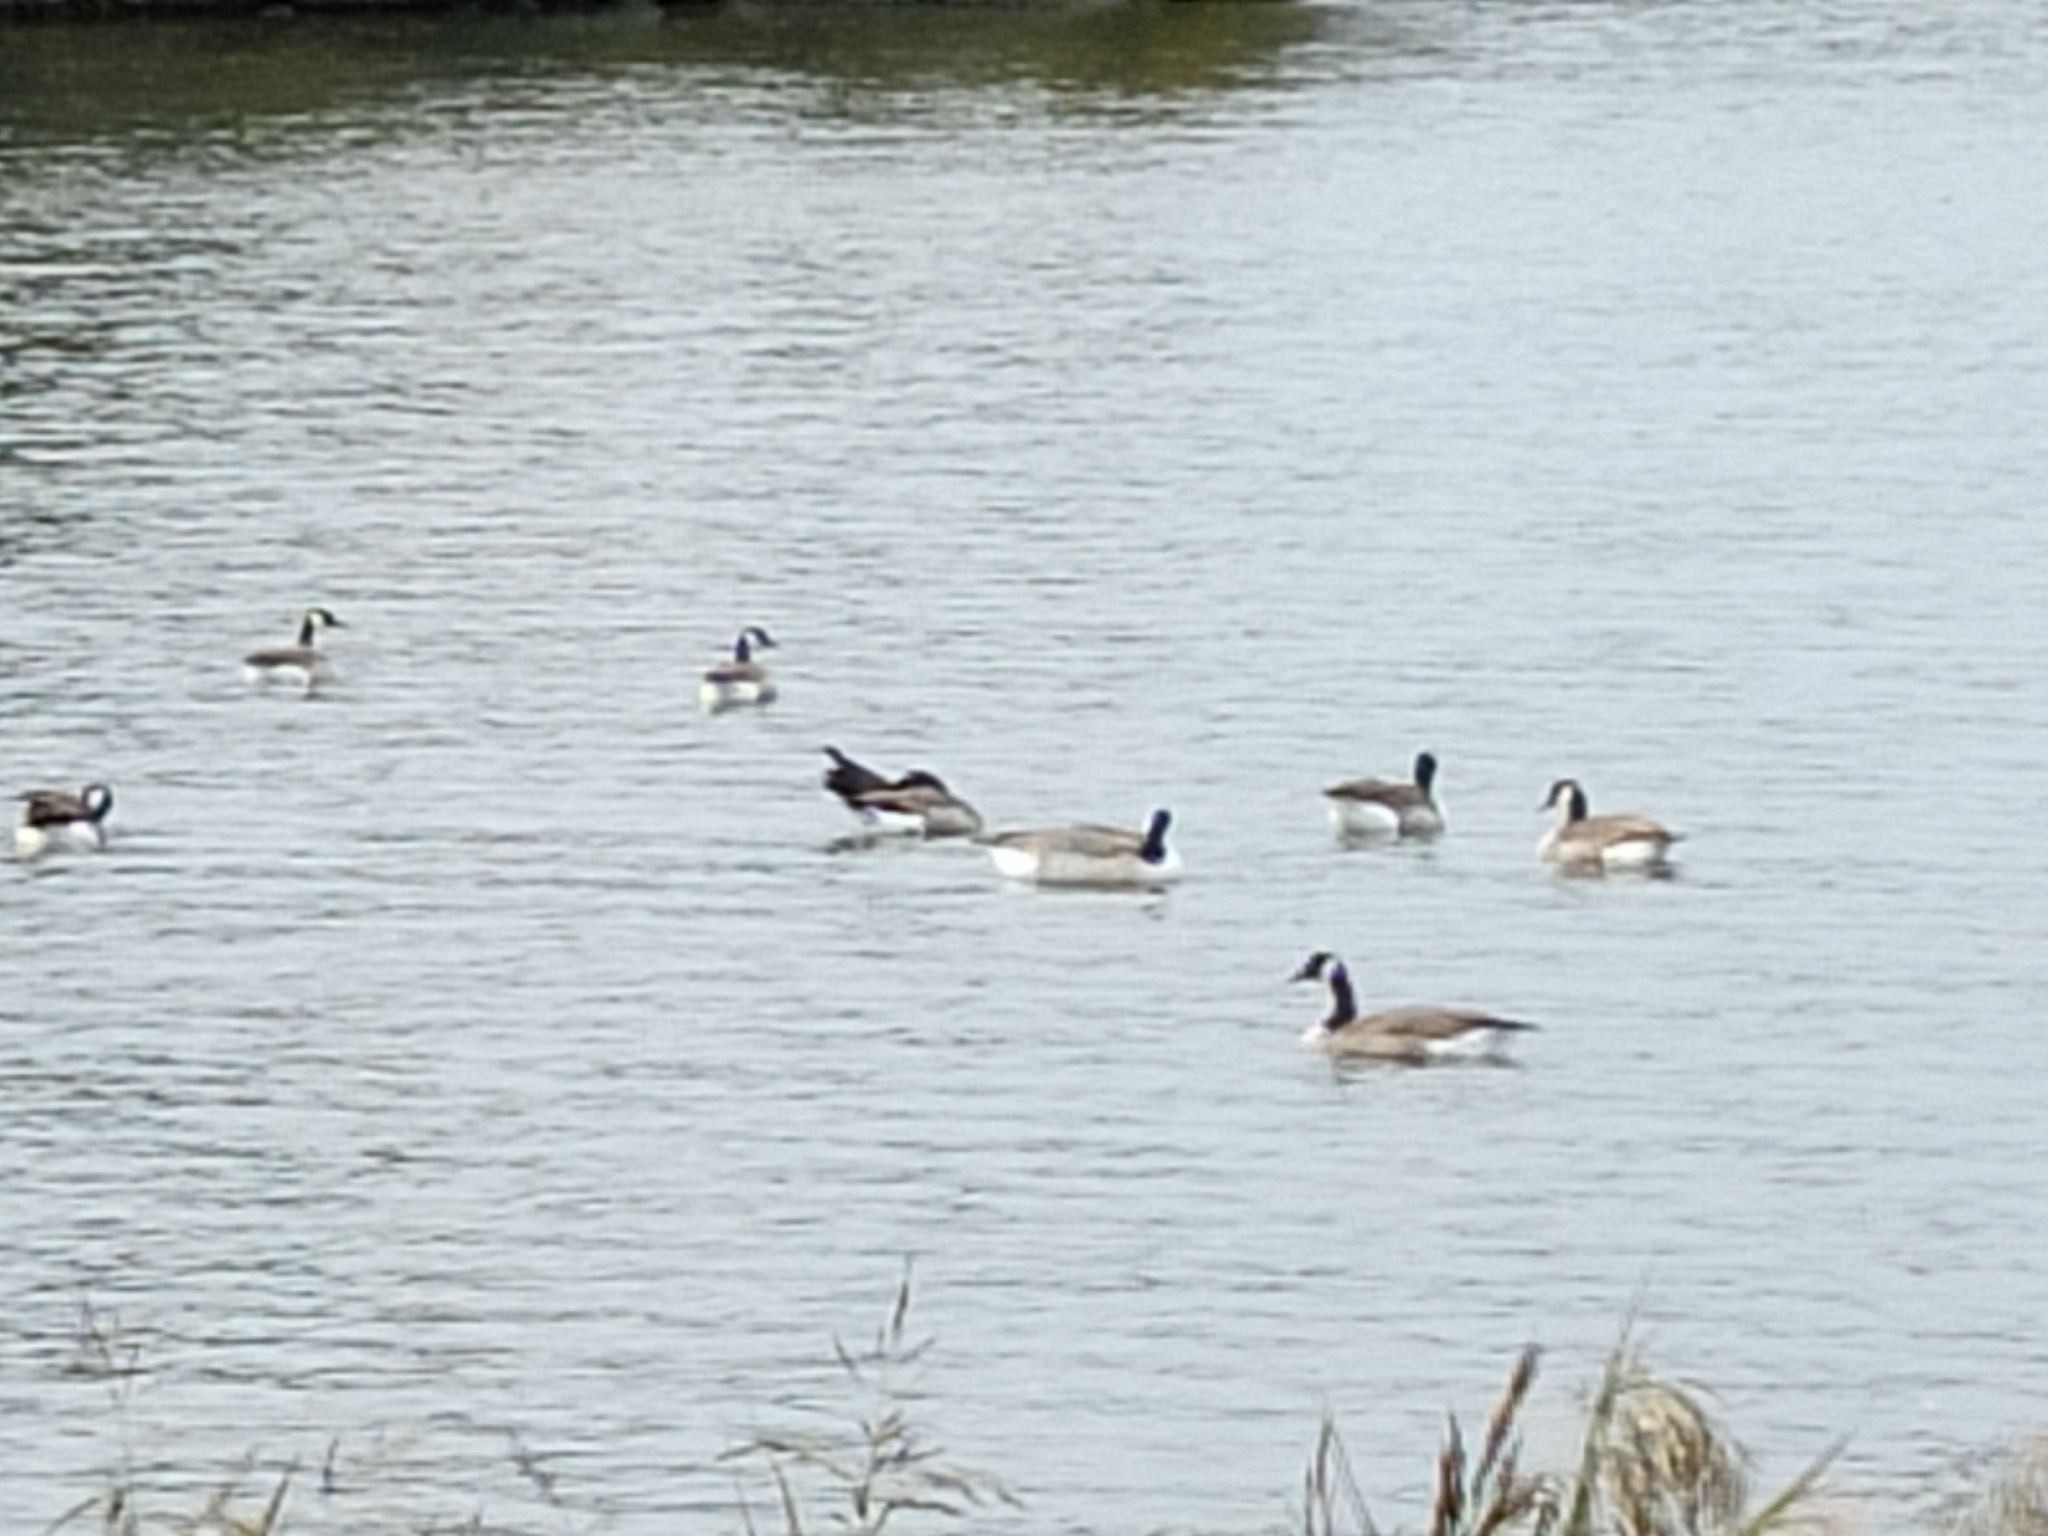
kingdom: Animalia
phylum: Chordata
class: Aves
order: Anseriformes
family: Anatidae
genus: Branta
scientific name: Branta canadensis
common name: Canada goose
